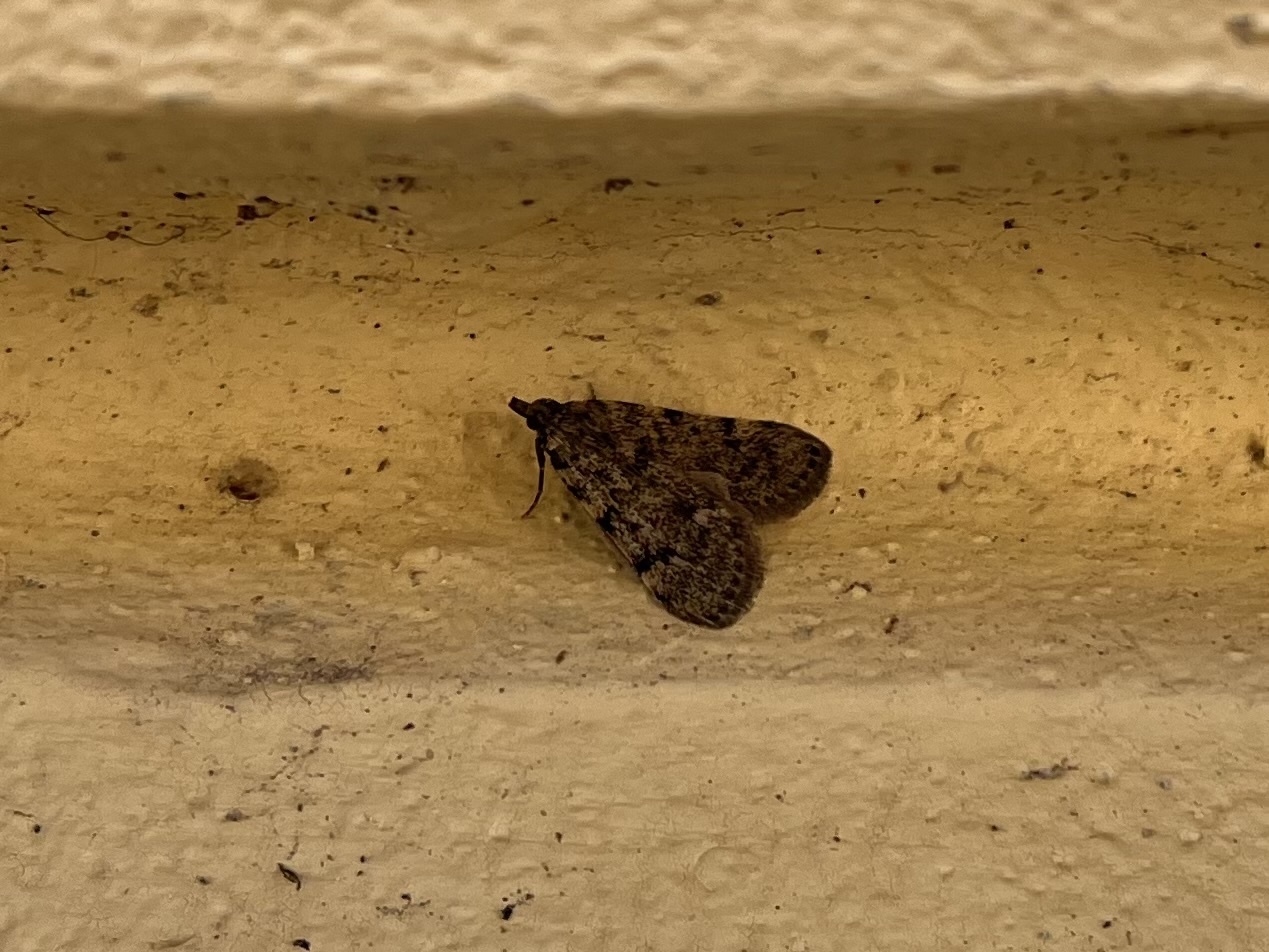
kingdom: Animalia
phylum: Arthropoda
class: Insecta
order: Lepidoptera
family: Pyralidae
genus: Aglossa
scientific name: Aglossa pinguinalis
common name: Large tabby
